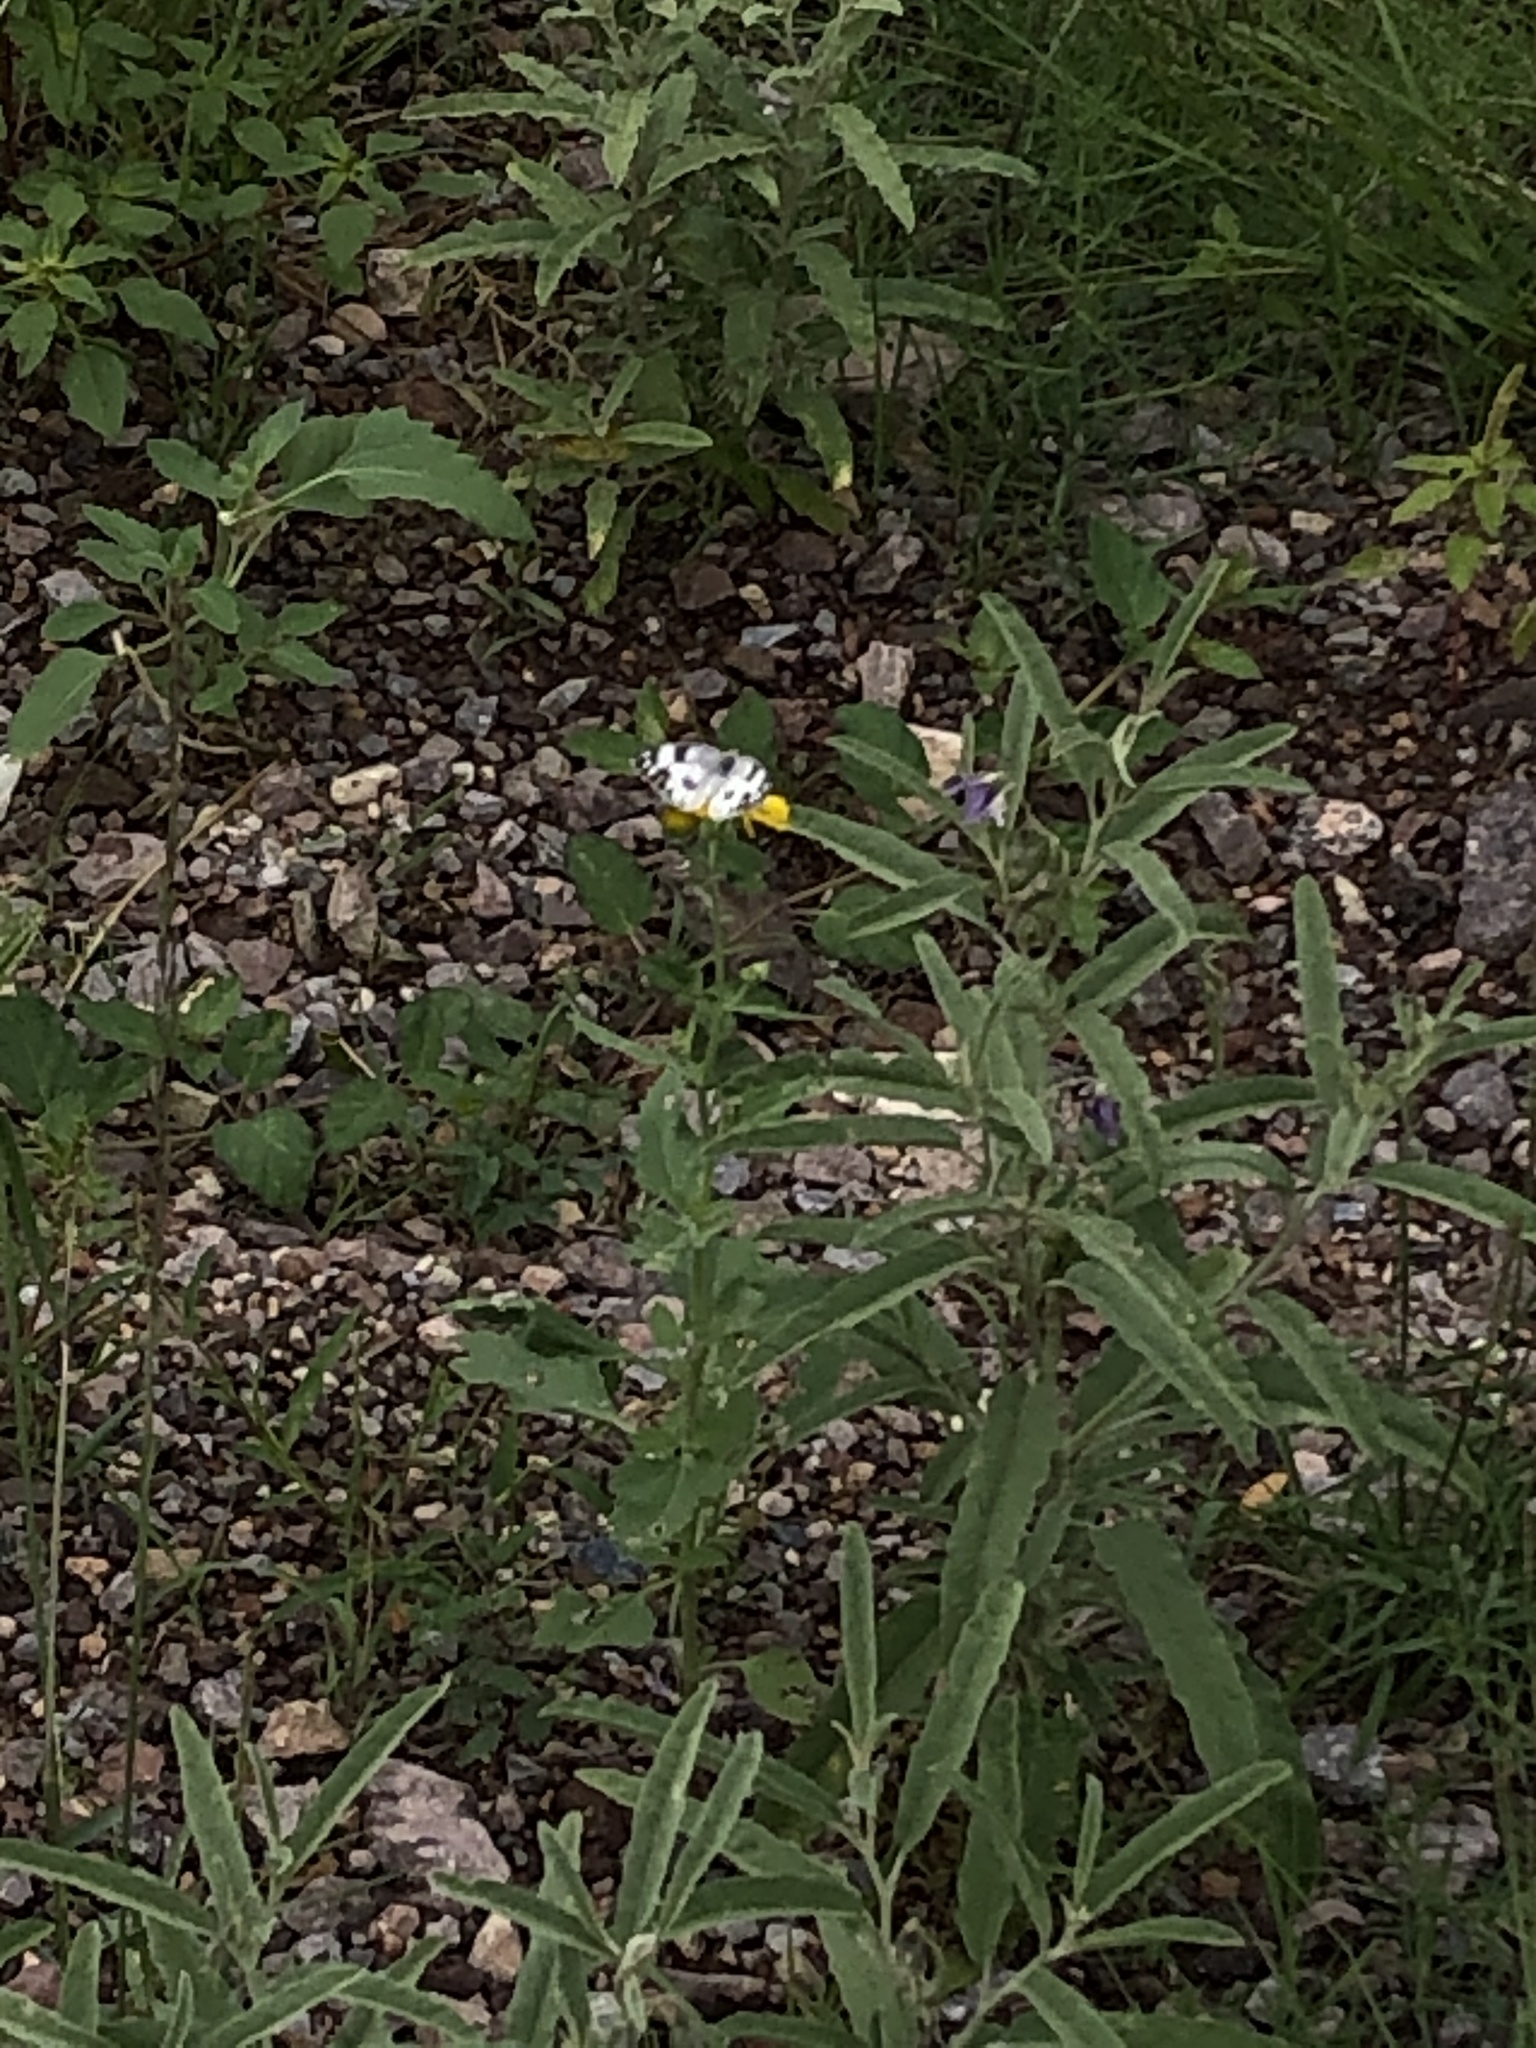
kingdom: Animalia
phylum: Arthropoda
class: Insecta
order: Lepidoptera
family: Pieridae
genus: Pontia
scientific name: Pontia protodice
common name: Checkered white
